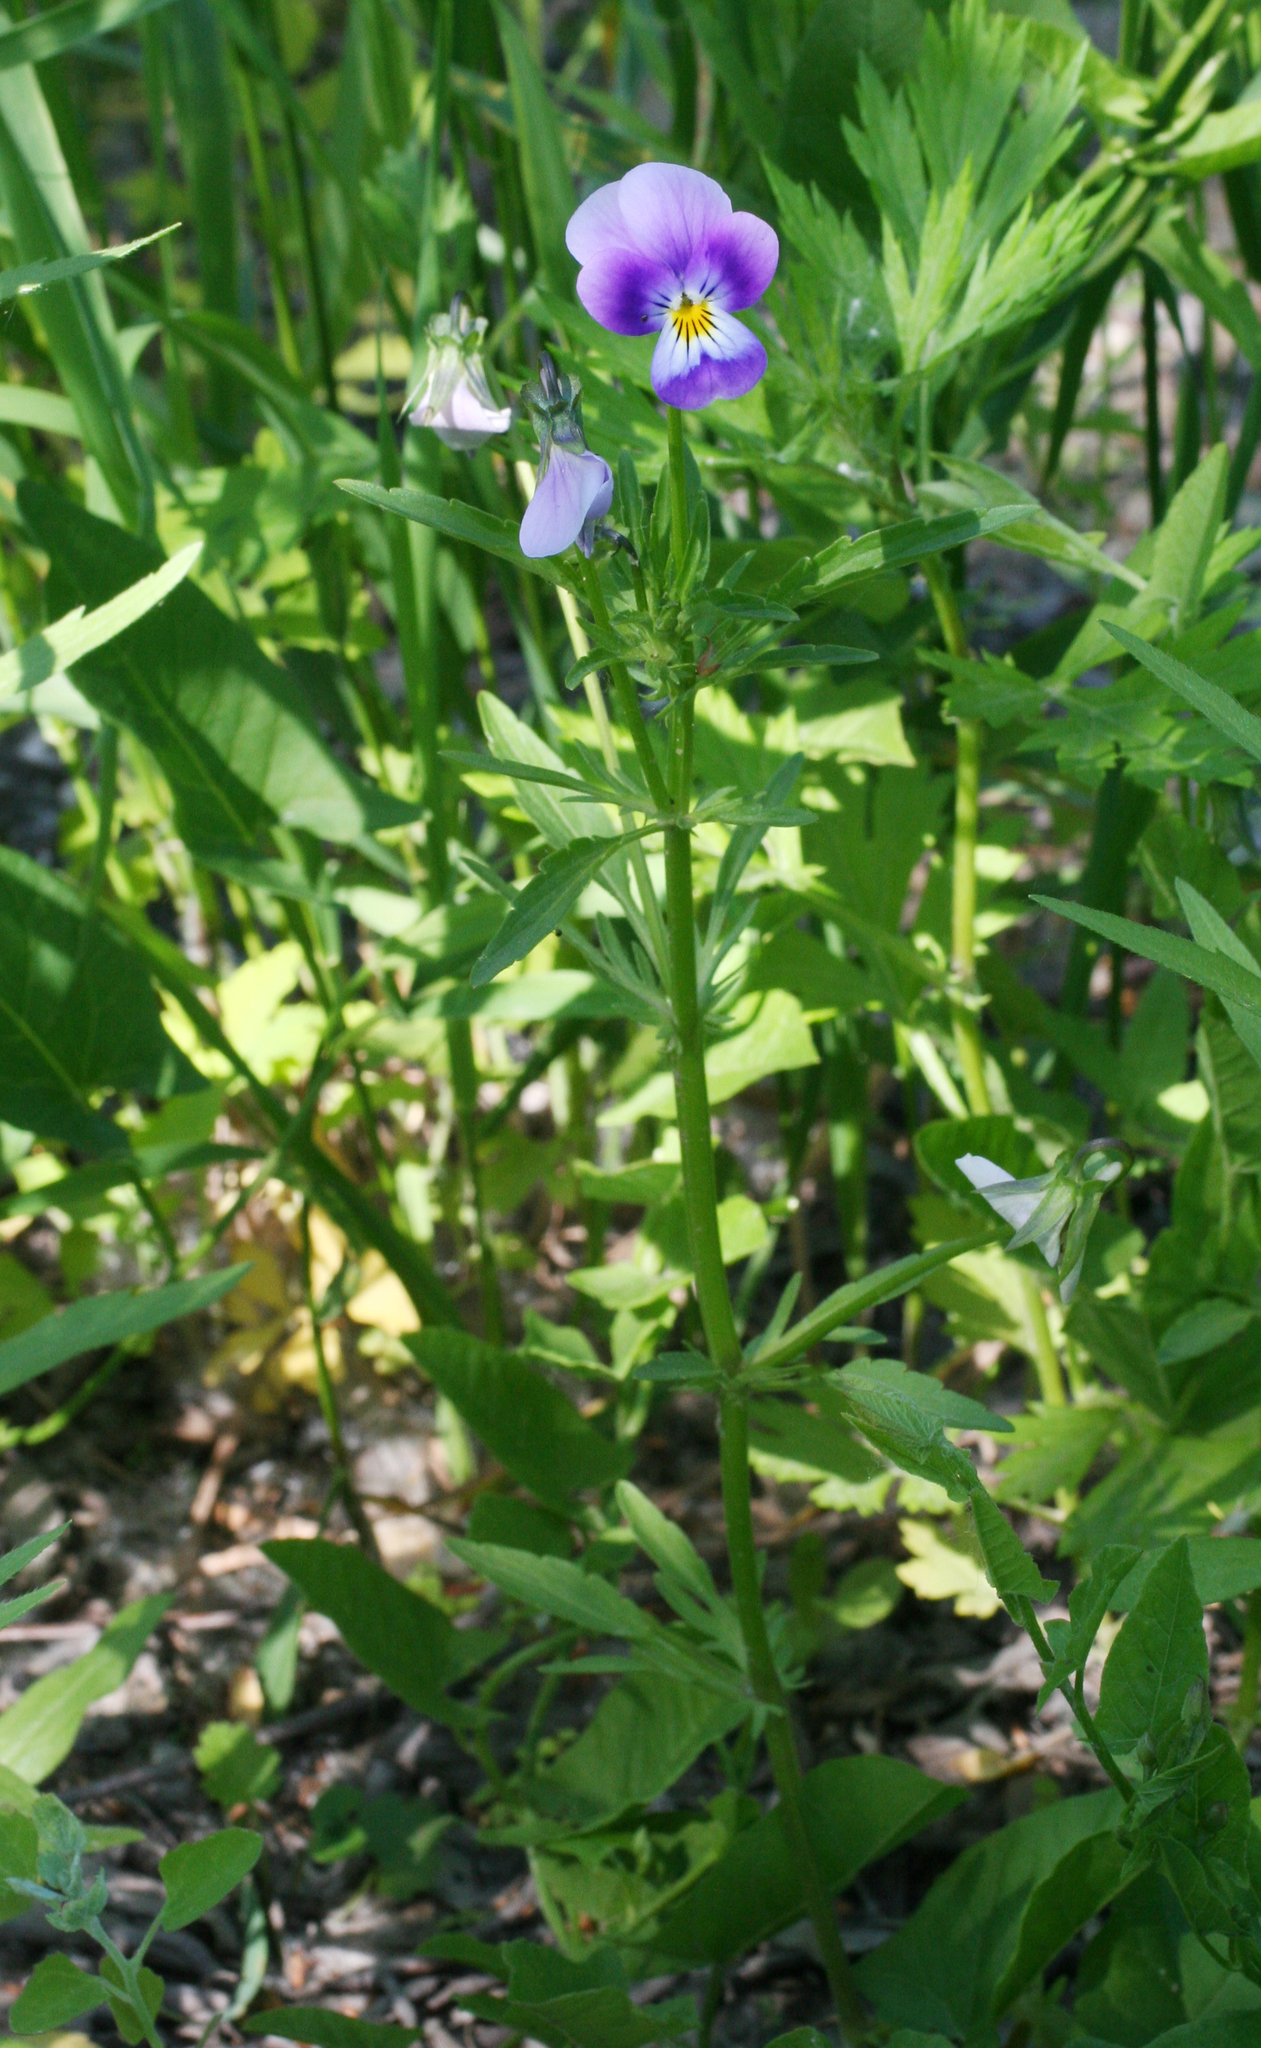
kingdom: Plantae
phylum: Tracheophyta
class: Magnoliopsida
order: Malpighiales
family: Violaceae
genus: Viola
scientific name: Viola tricolor
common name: Pansy
